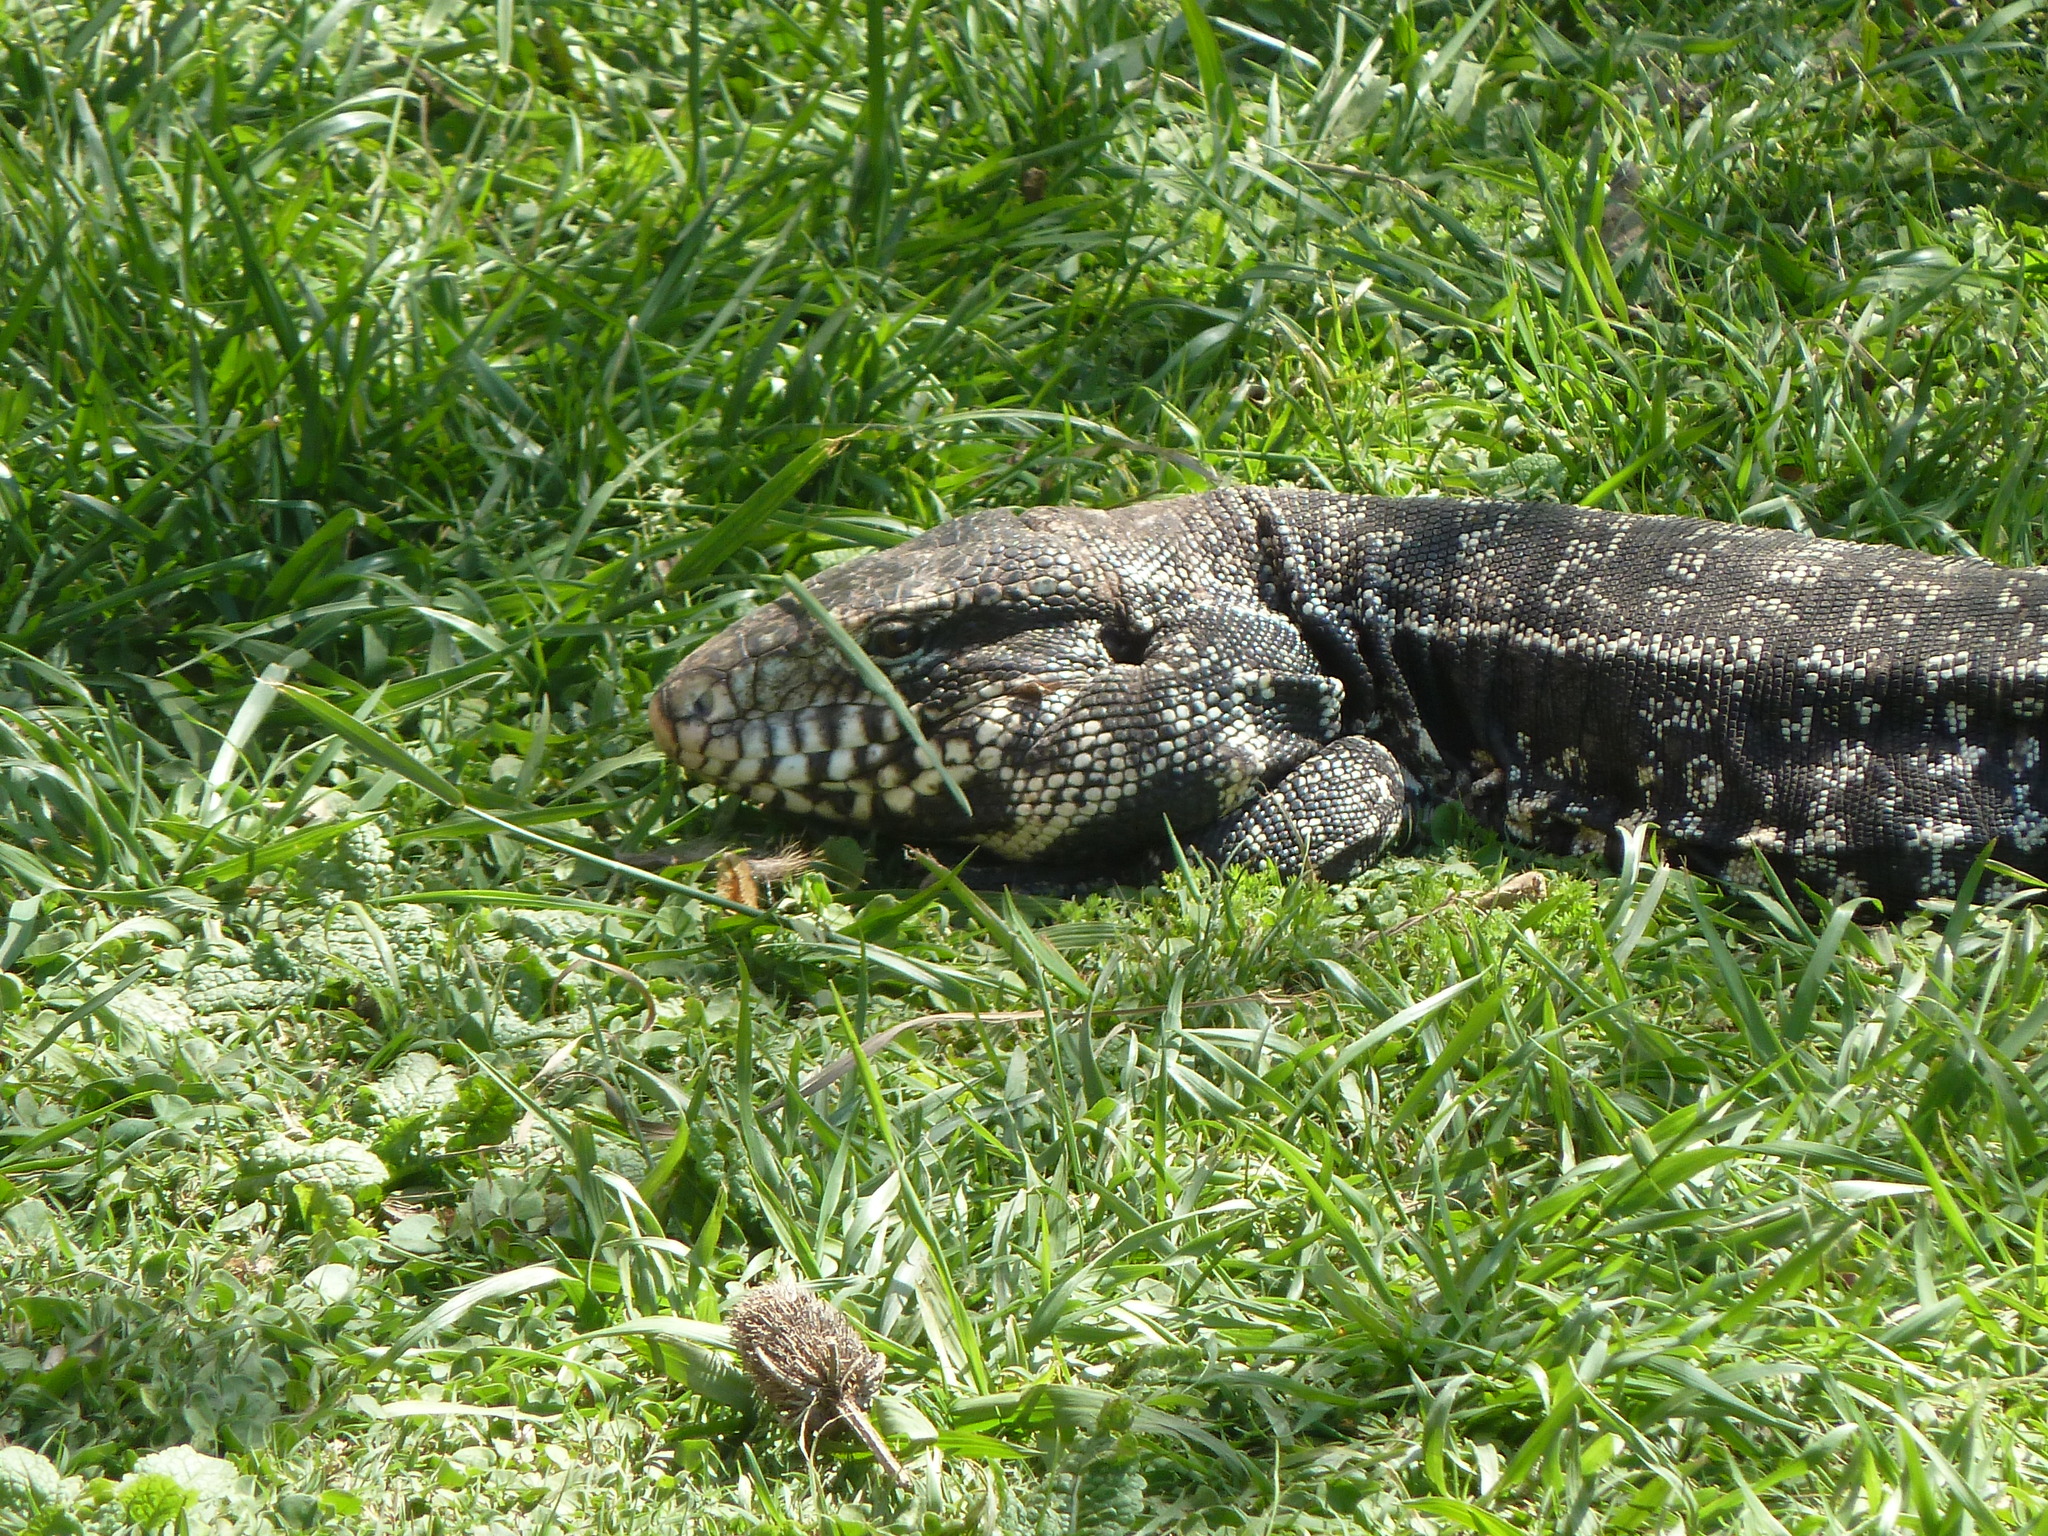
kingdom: Animalia
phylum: Chordata
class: Squamata
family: Teiidae
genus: Salvator
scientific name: Salvator merianae
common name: Argentine black and white tegu
